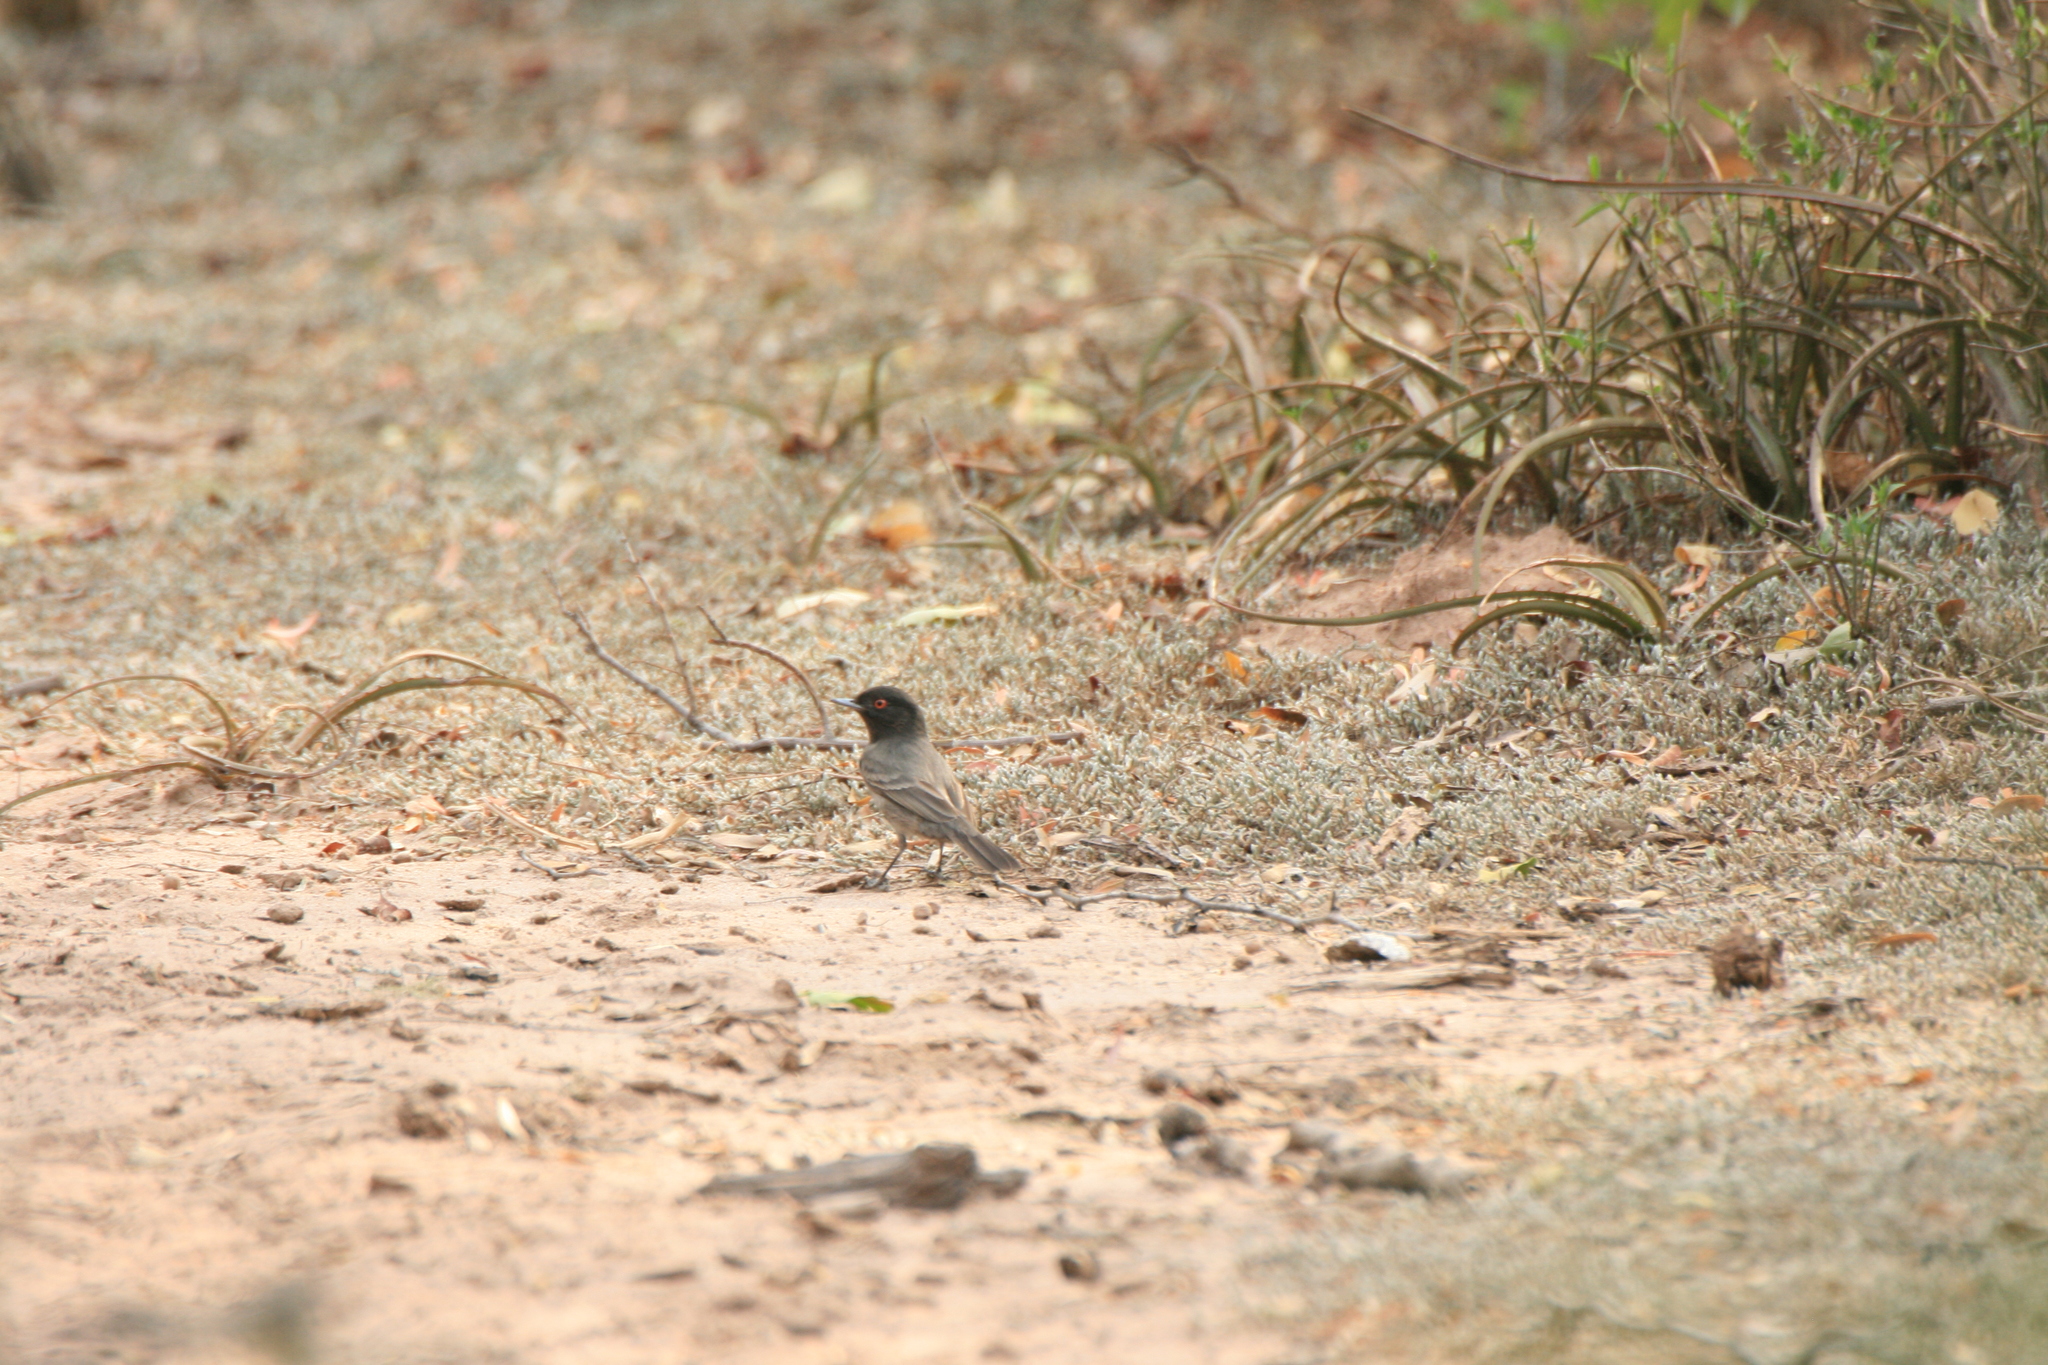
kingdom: Animalia
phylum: Chordata
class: Aves
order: Passeriformes
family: Tyrannidae
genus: Knipolegus
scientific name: Knipolegus striaticeps
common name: Cinereous tyrant
